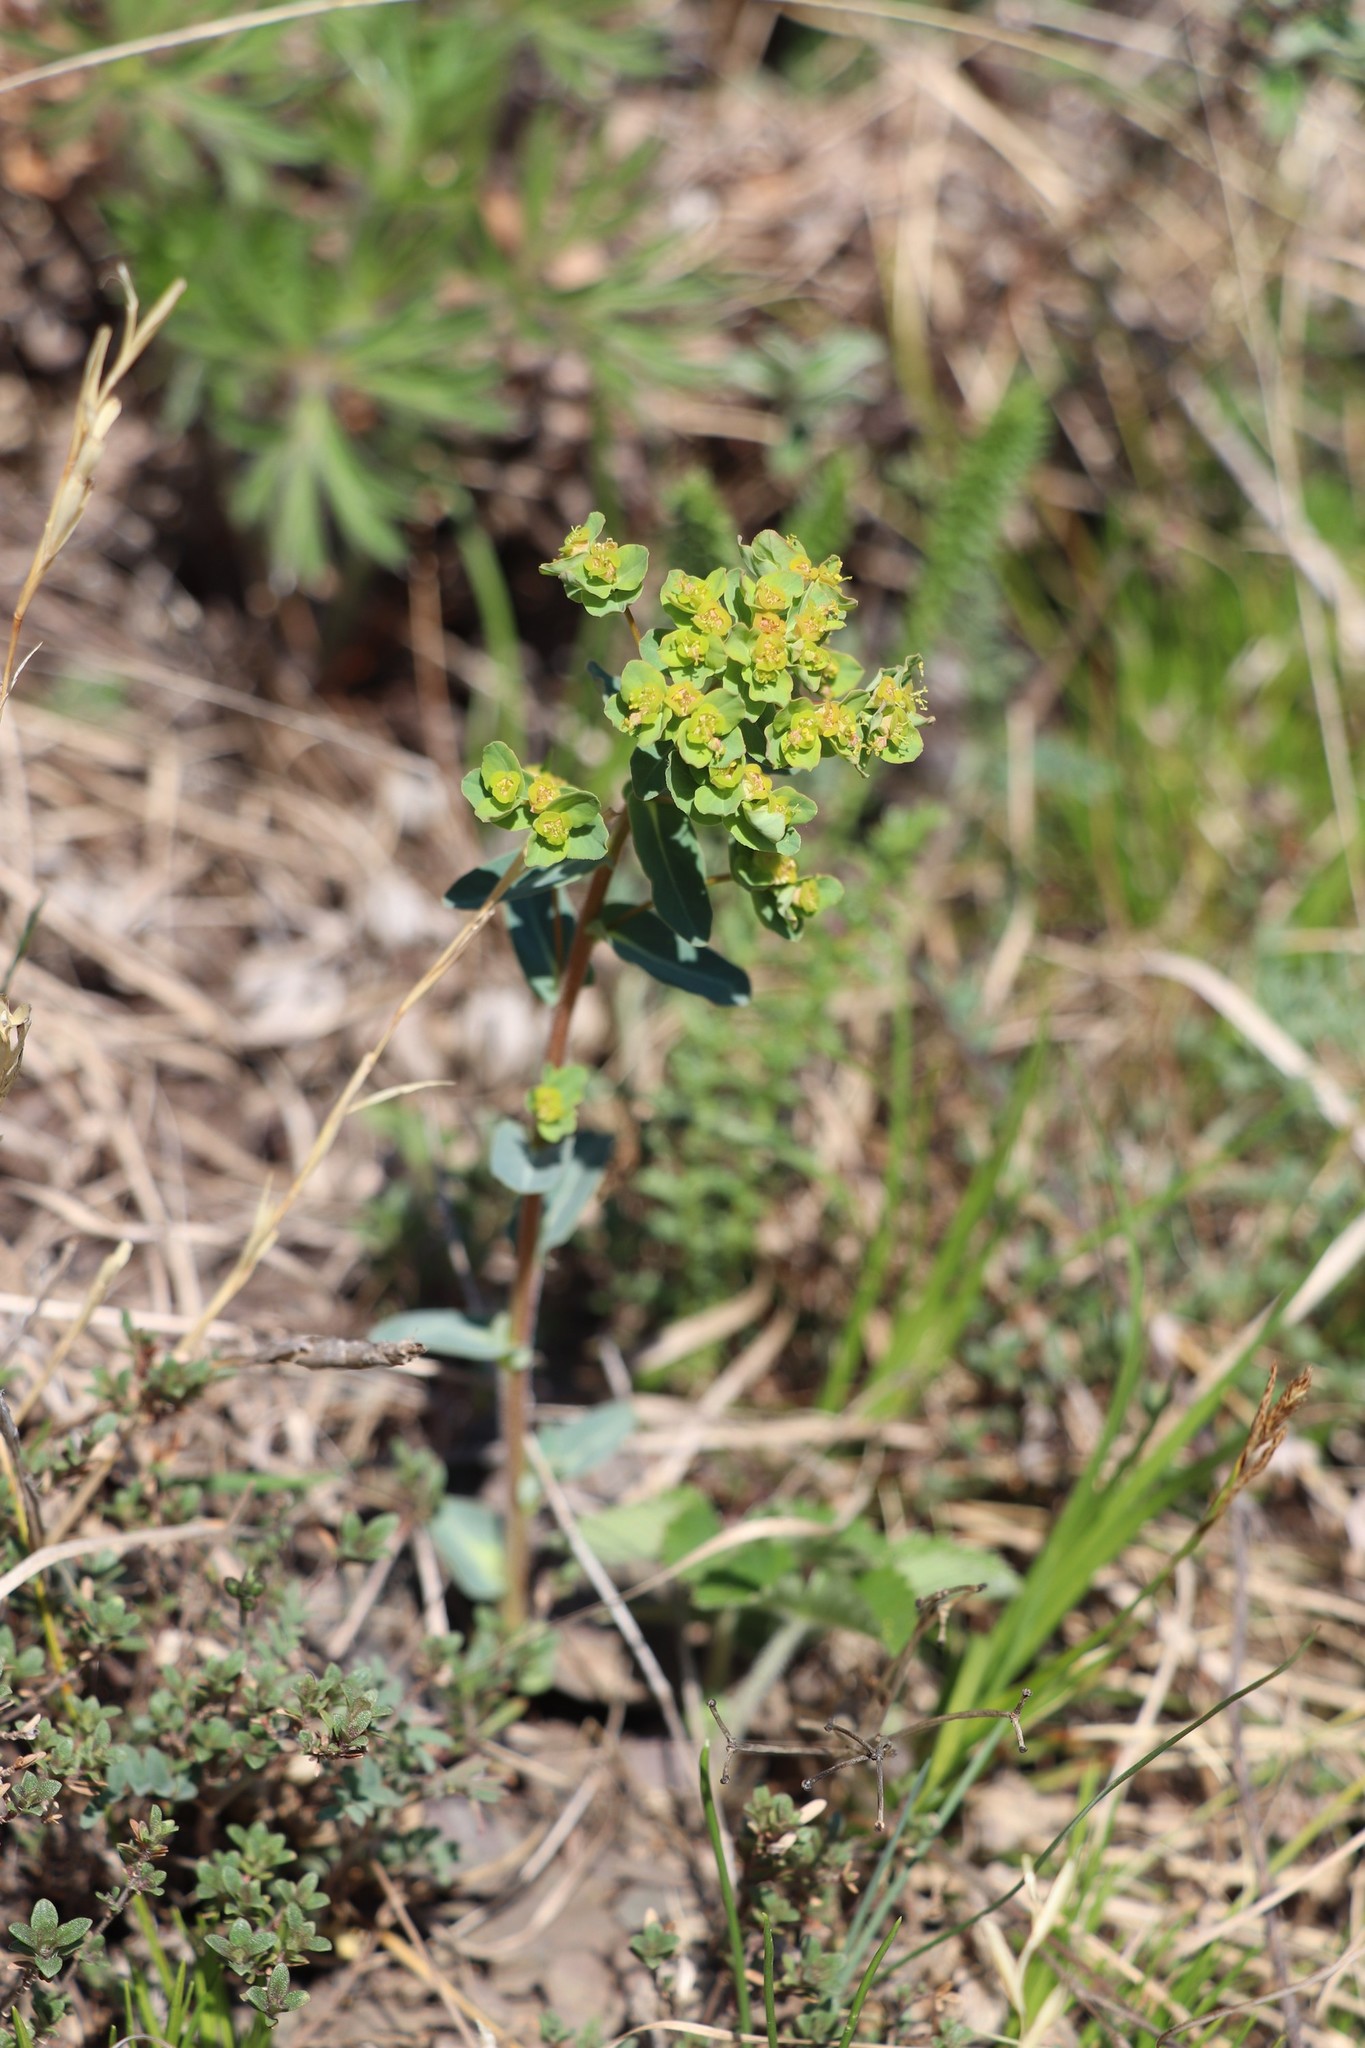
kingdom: Plantae
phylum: Tracheophyta
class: Magnoliopsida
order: Malpighiales
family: Euphorbiaceae
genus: Euphorbia
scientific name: Euphorbia alpina
